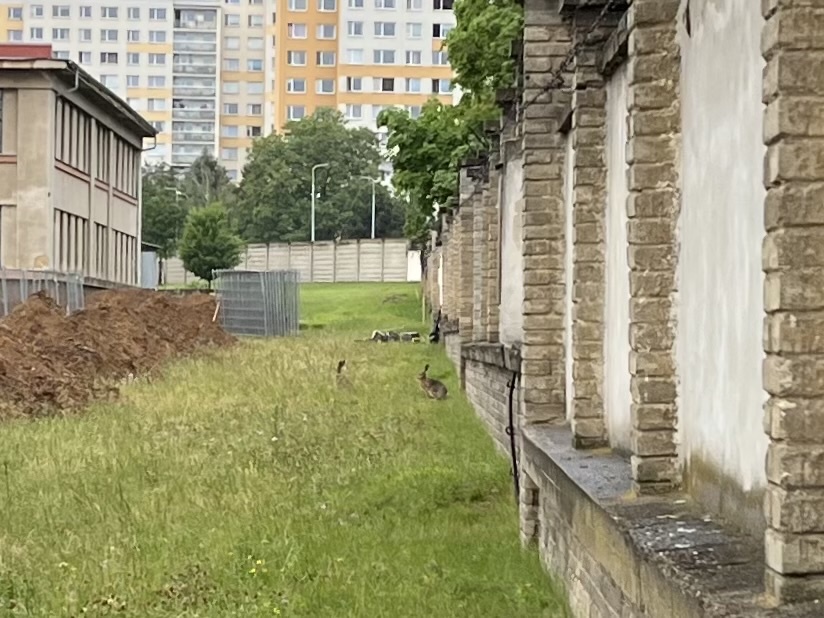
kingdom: Animalia
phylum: Chordata
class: Mammalia
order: Lagomorpha
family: Leporidae
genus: Lepus
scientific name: Lepus europaeus
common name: European hare
